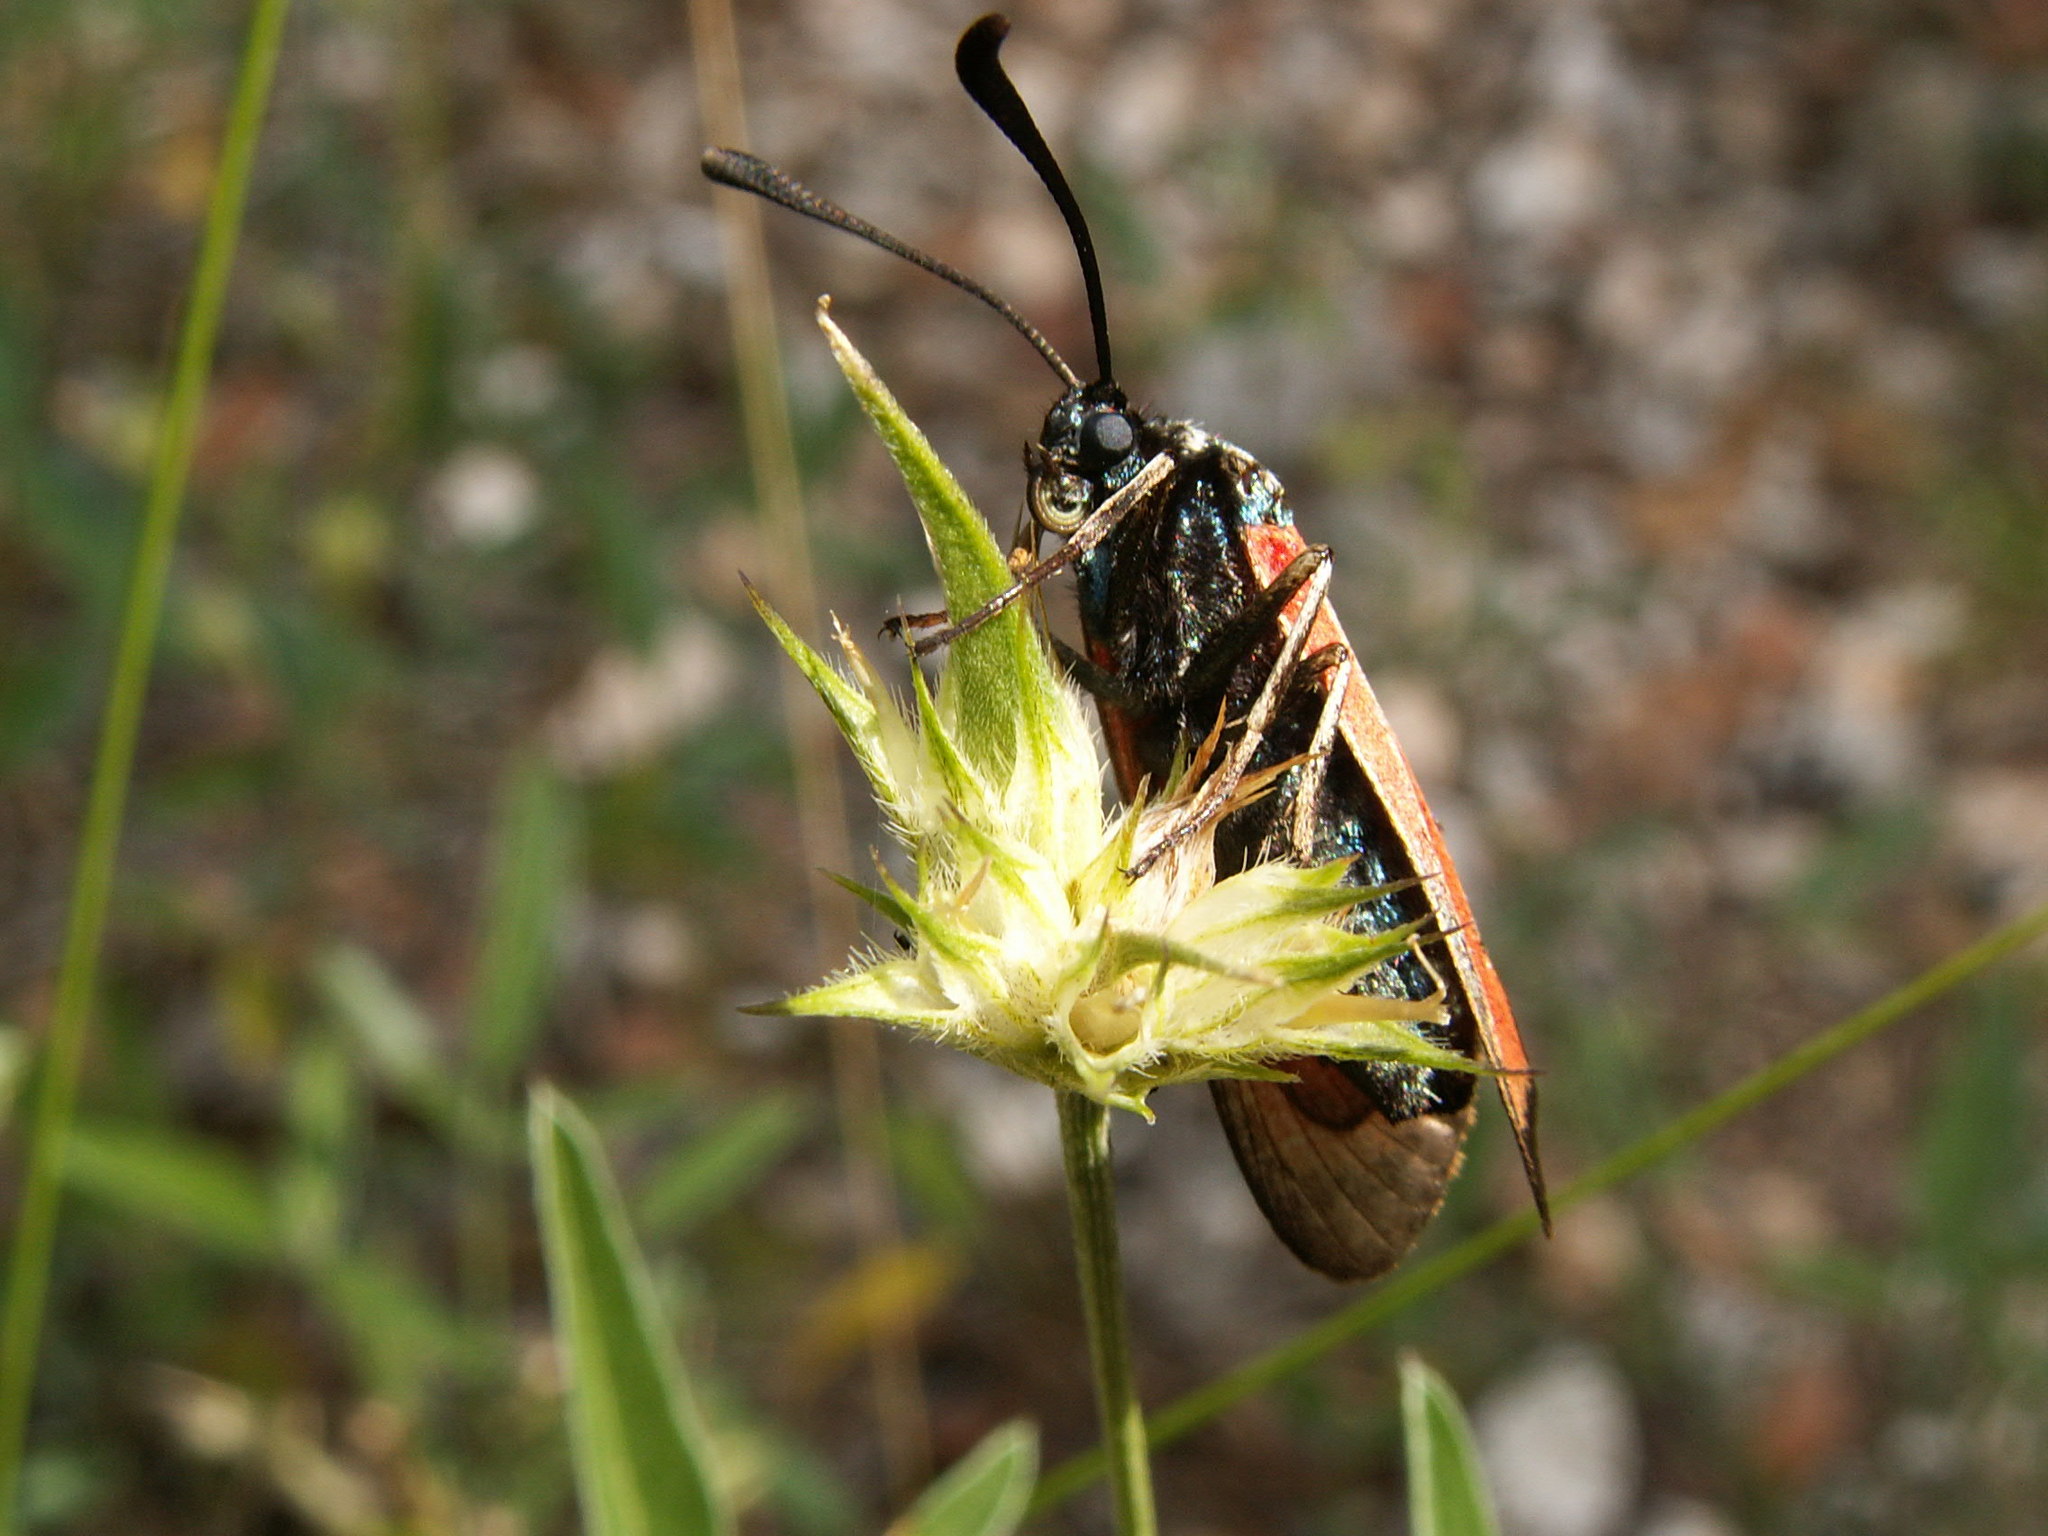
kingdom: Animalia
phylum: Arthropoda
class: Insecta
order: Lepidoptera
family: Zygaenidae
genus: Zygaena
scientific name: Zygaena erythrus
